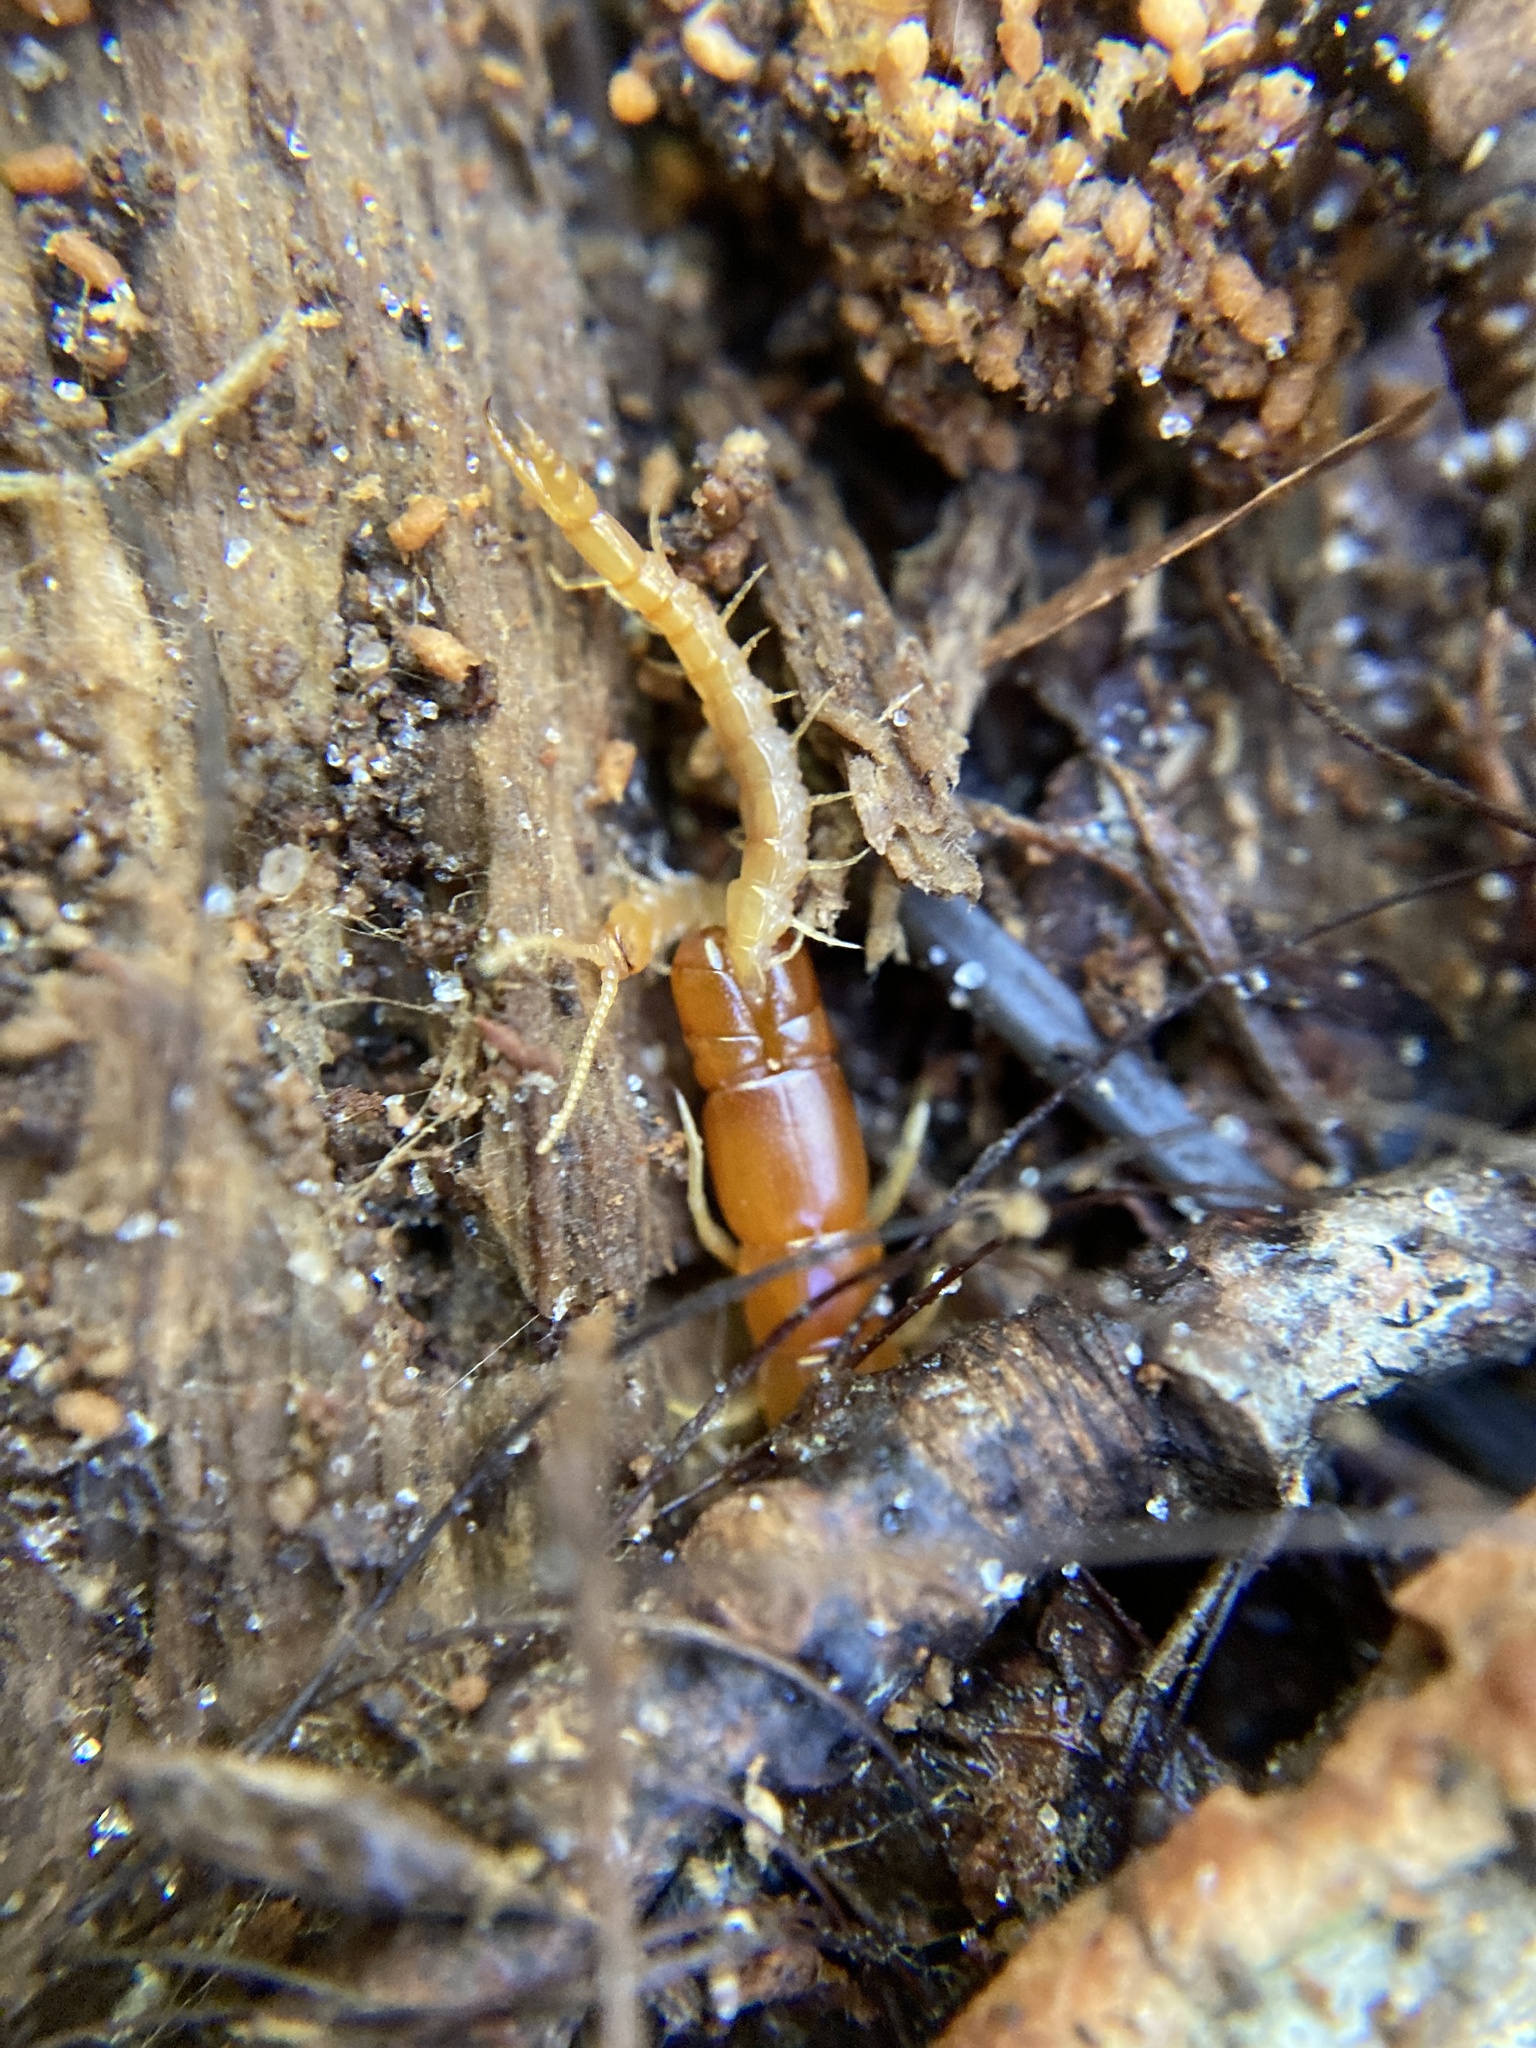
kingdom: Animalia
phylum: Arthropoda
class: Chilopoda
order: Scolopendromorpha
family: Cryptopidae
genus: Theatops
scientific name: Theatops posticus
